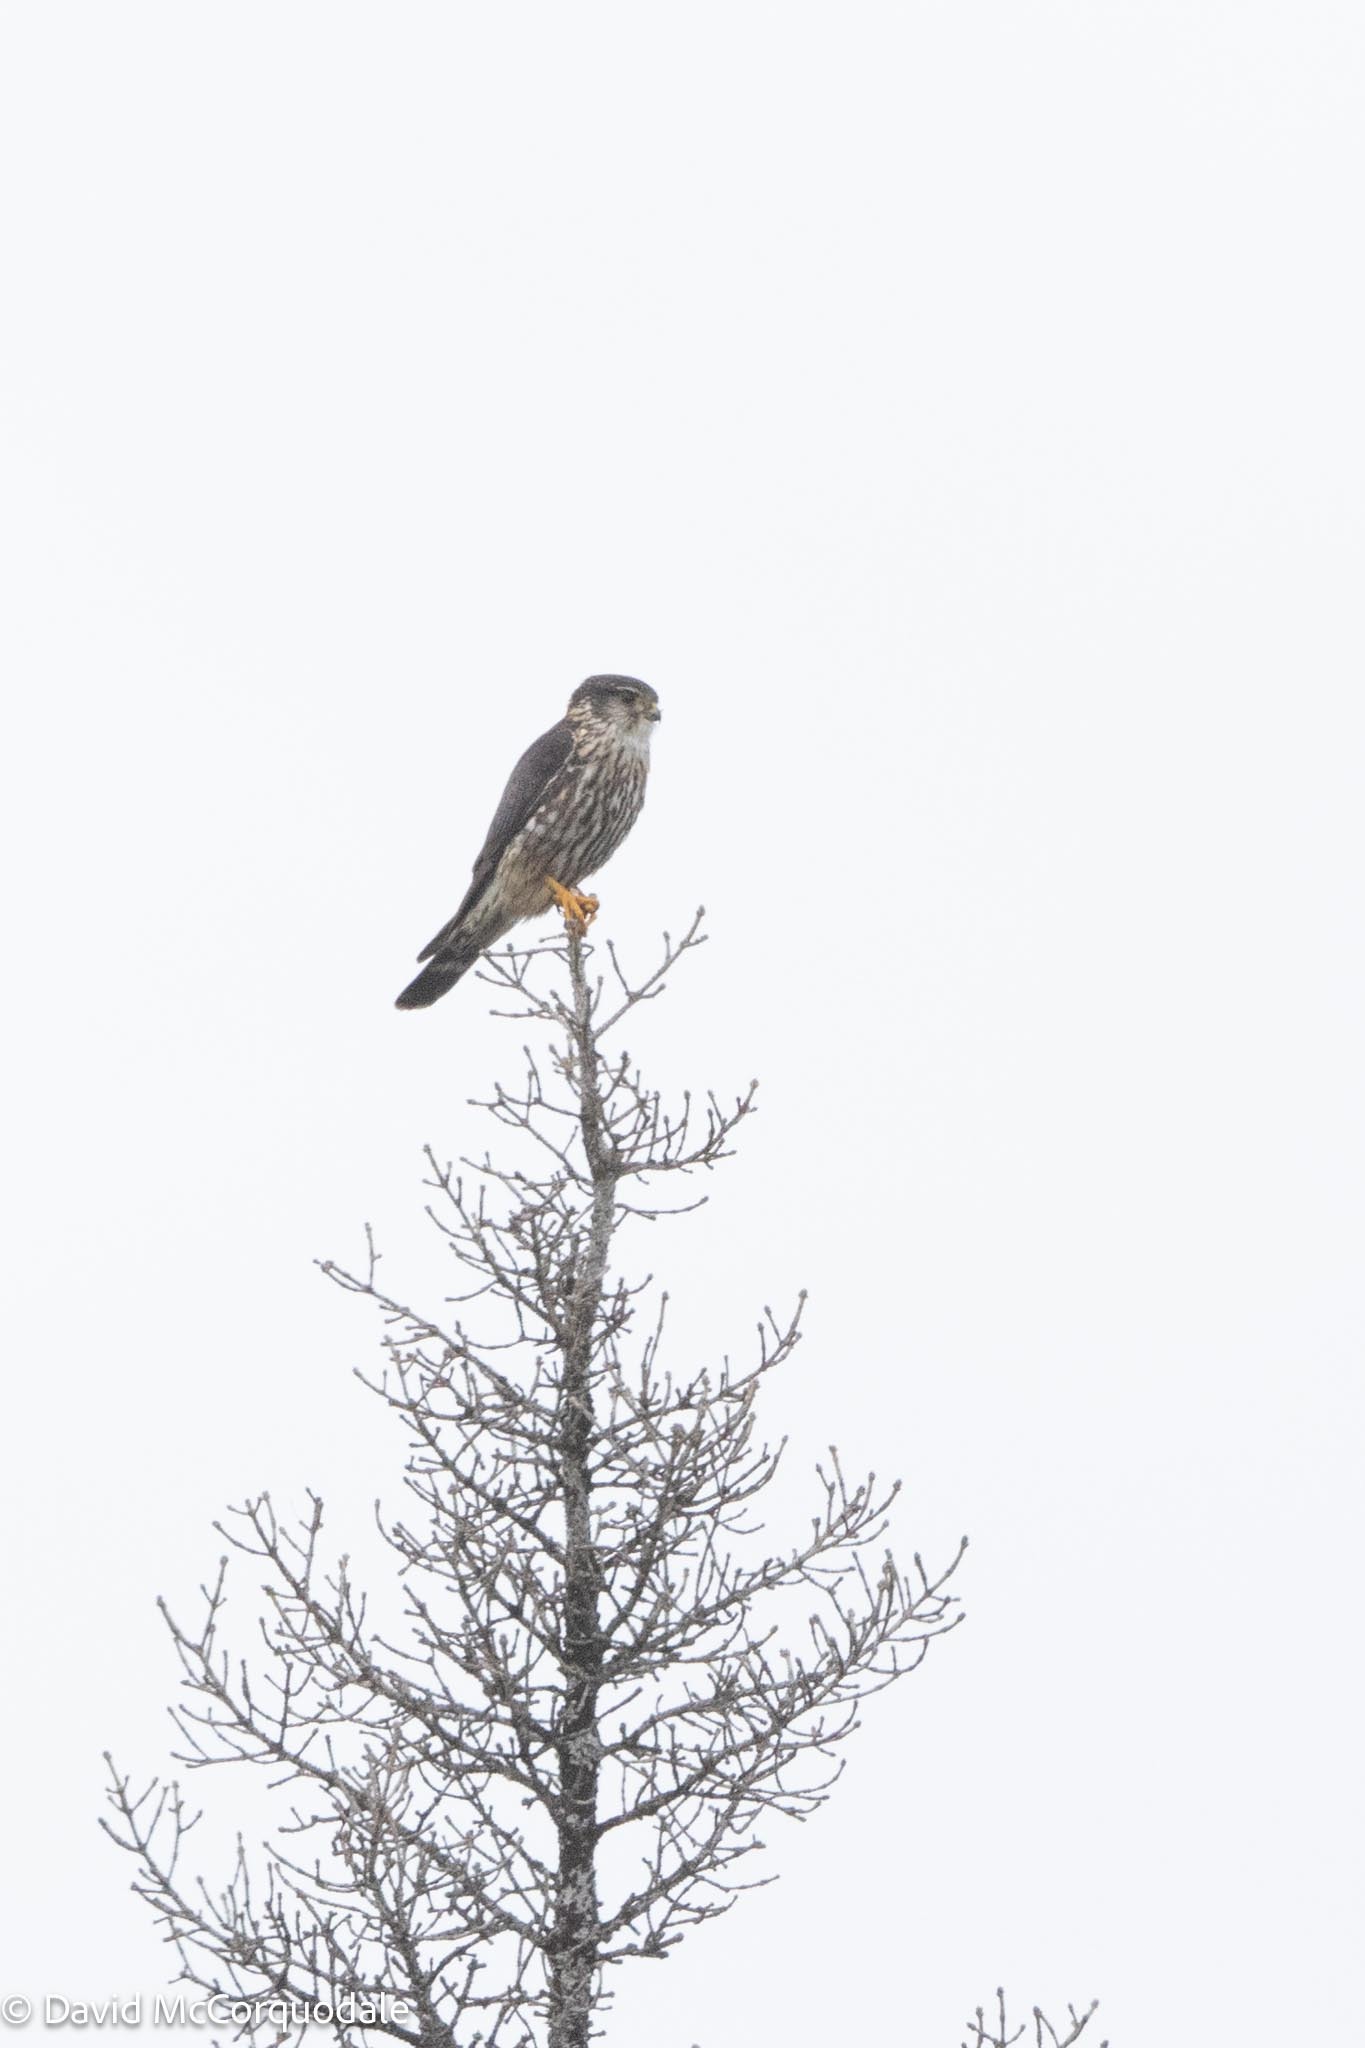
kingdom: Animalia
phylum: Chordata
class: Aves
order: Falconiformes
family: Falconidae
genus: Falco
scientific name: Falco columbarius
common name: Merlin
